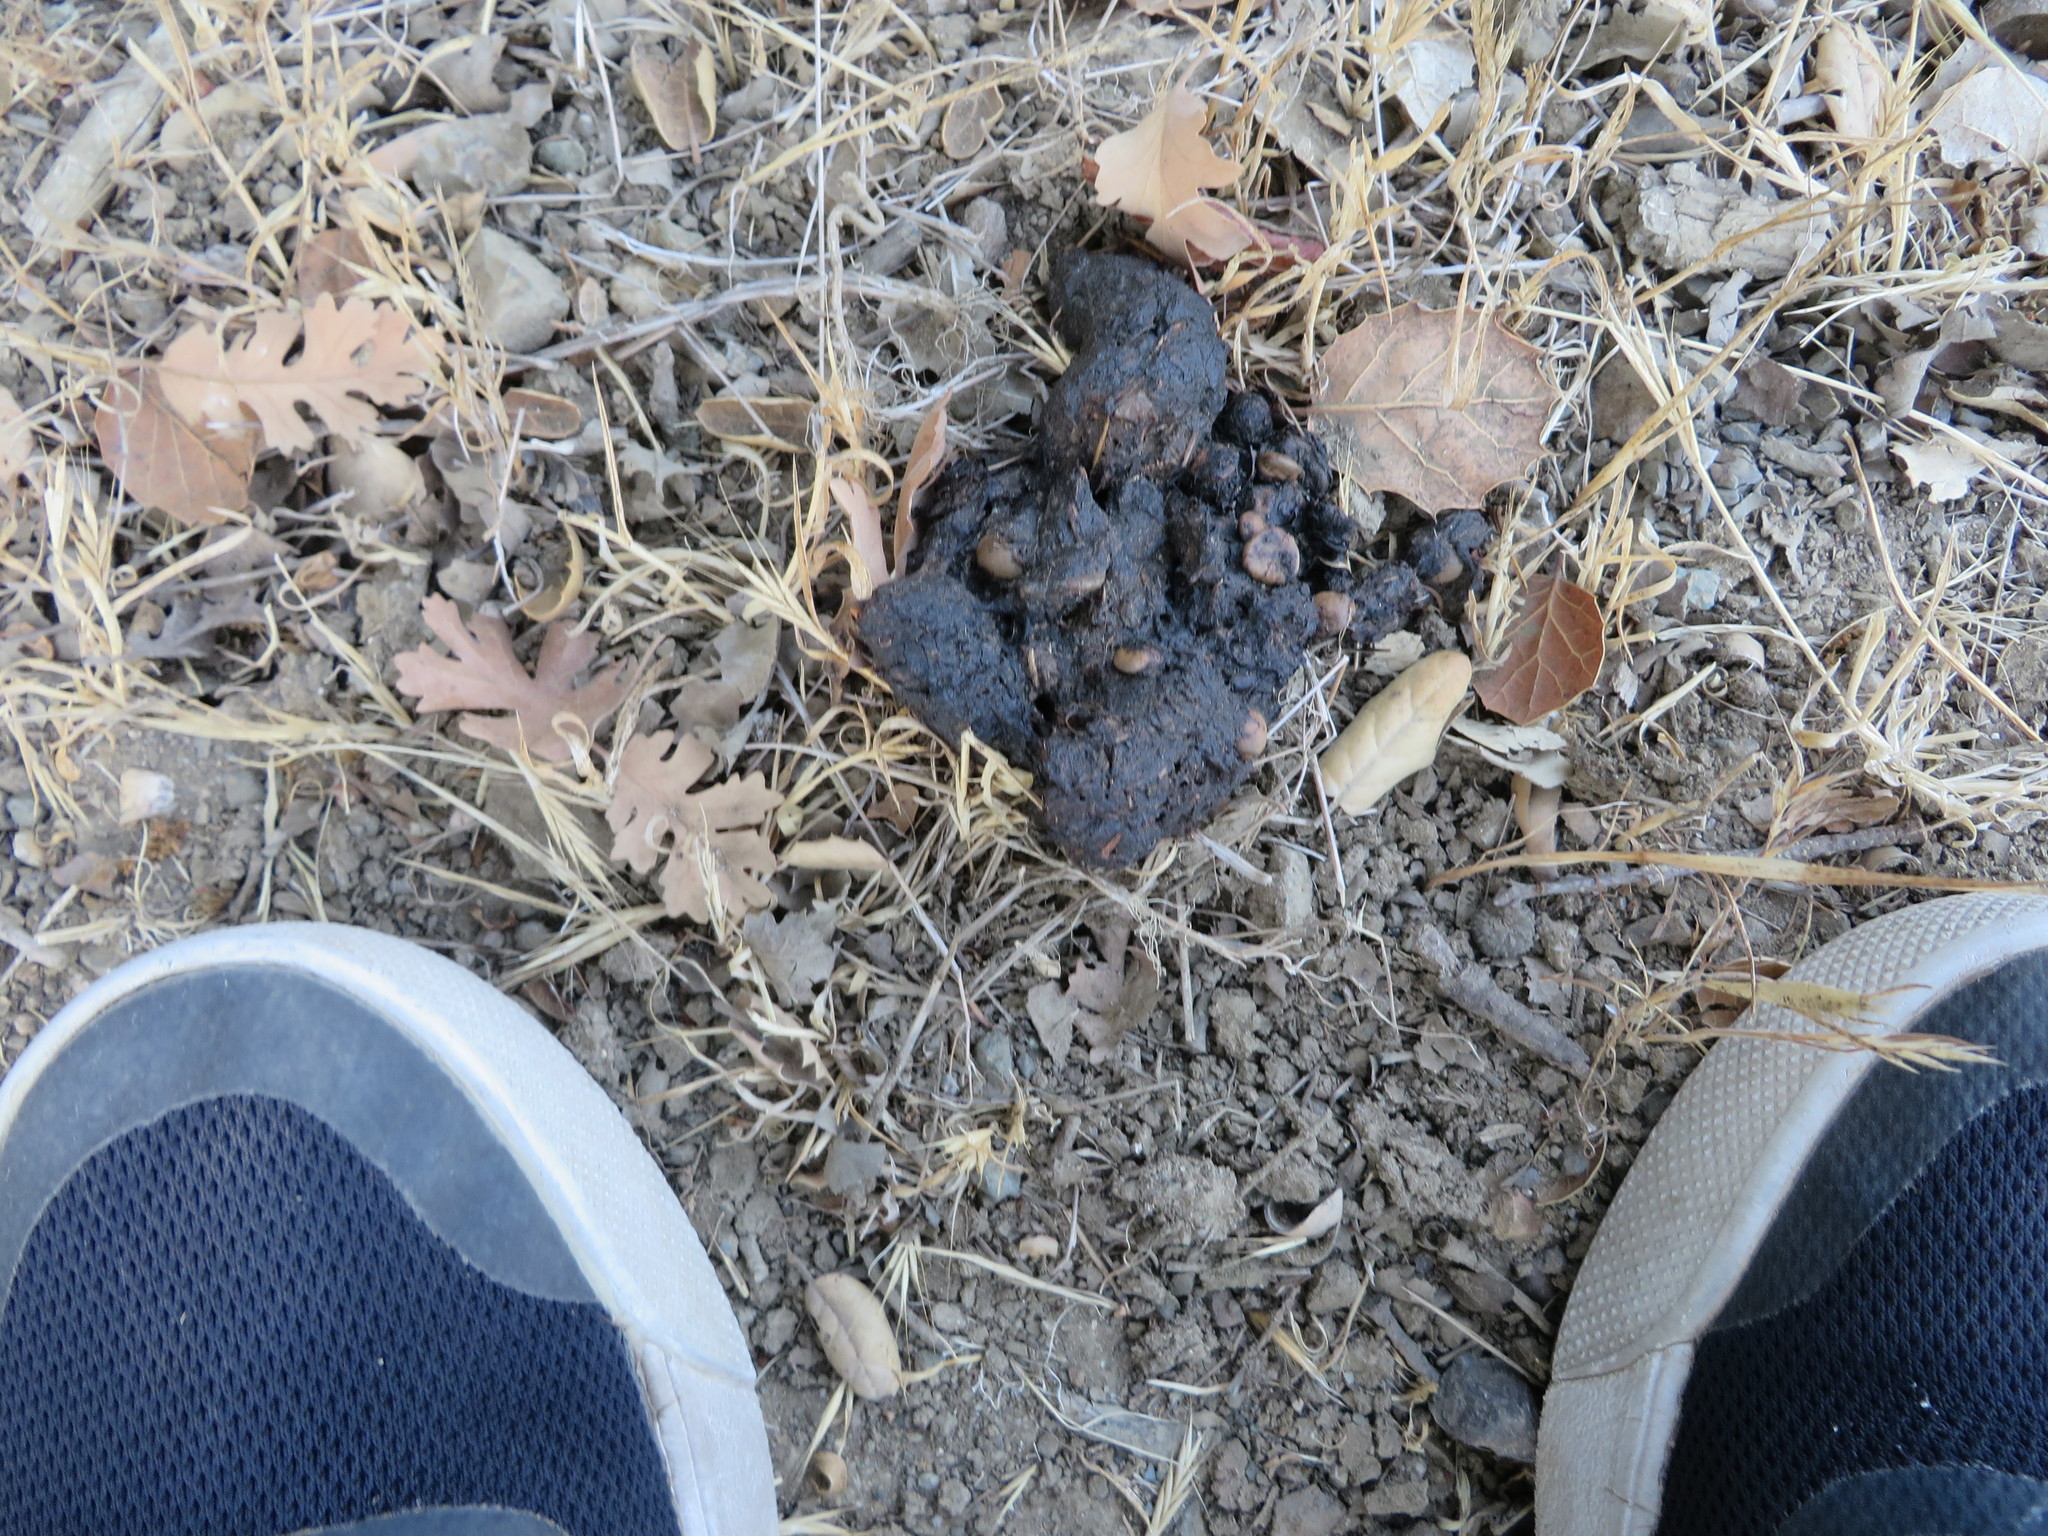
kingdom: Animalia
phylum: Chordata
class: Mammalia
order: Carnivora
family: Ursidae
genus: Ursus
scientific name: Ursus americanus
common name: American black bear
